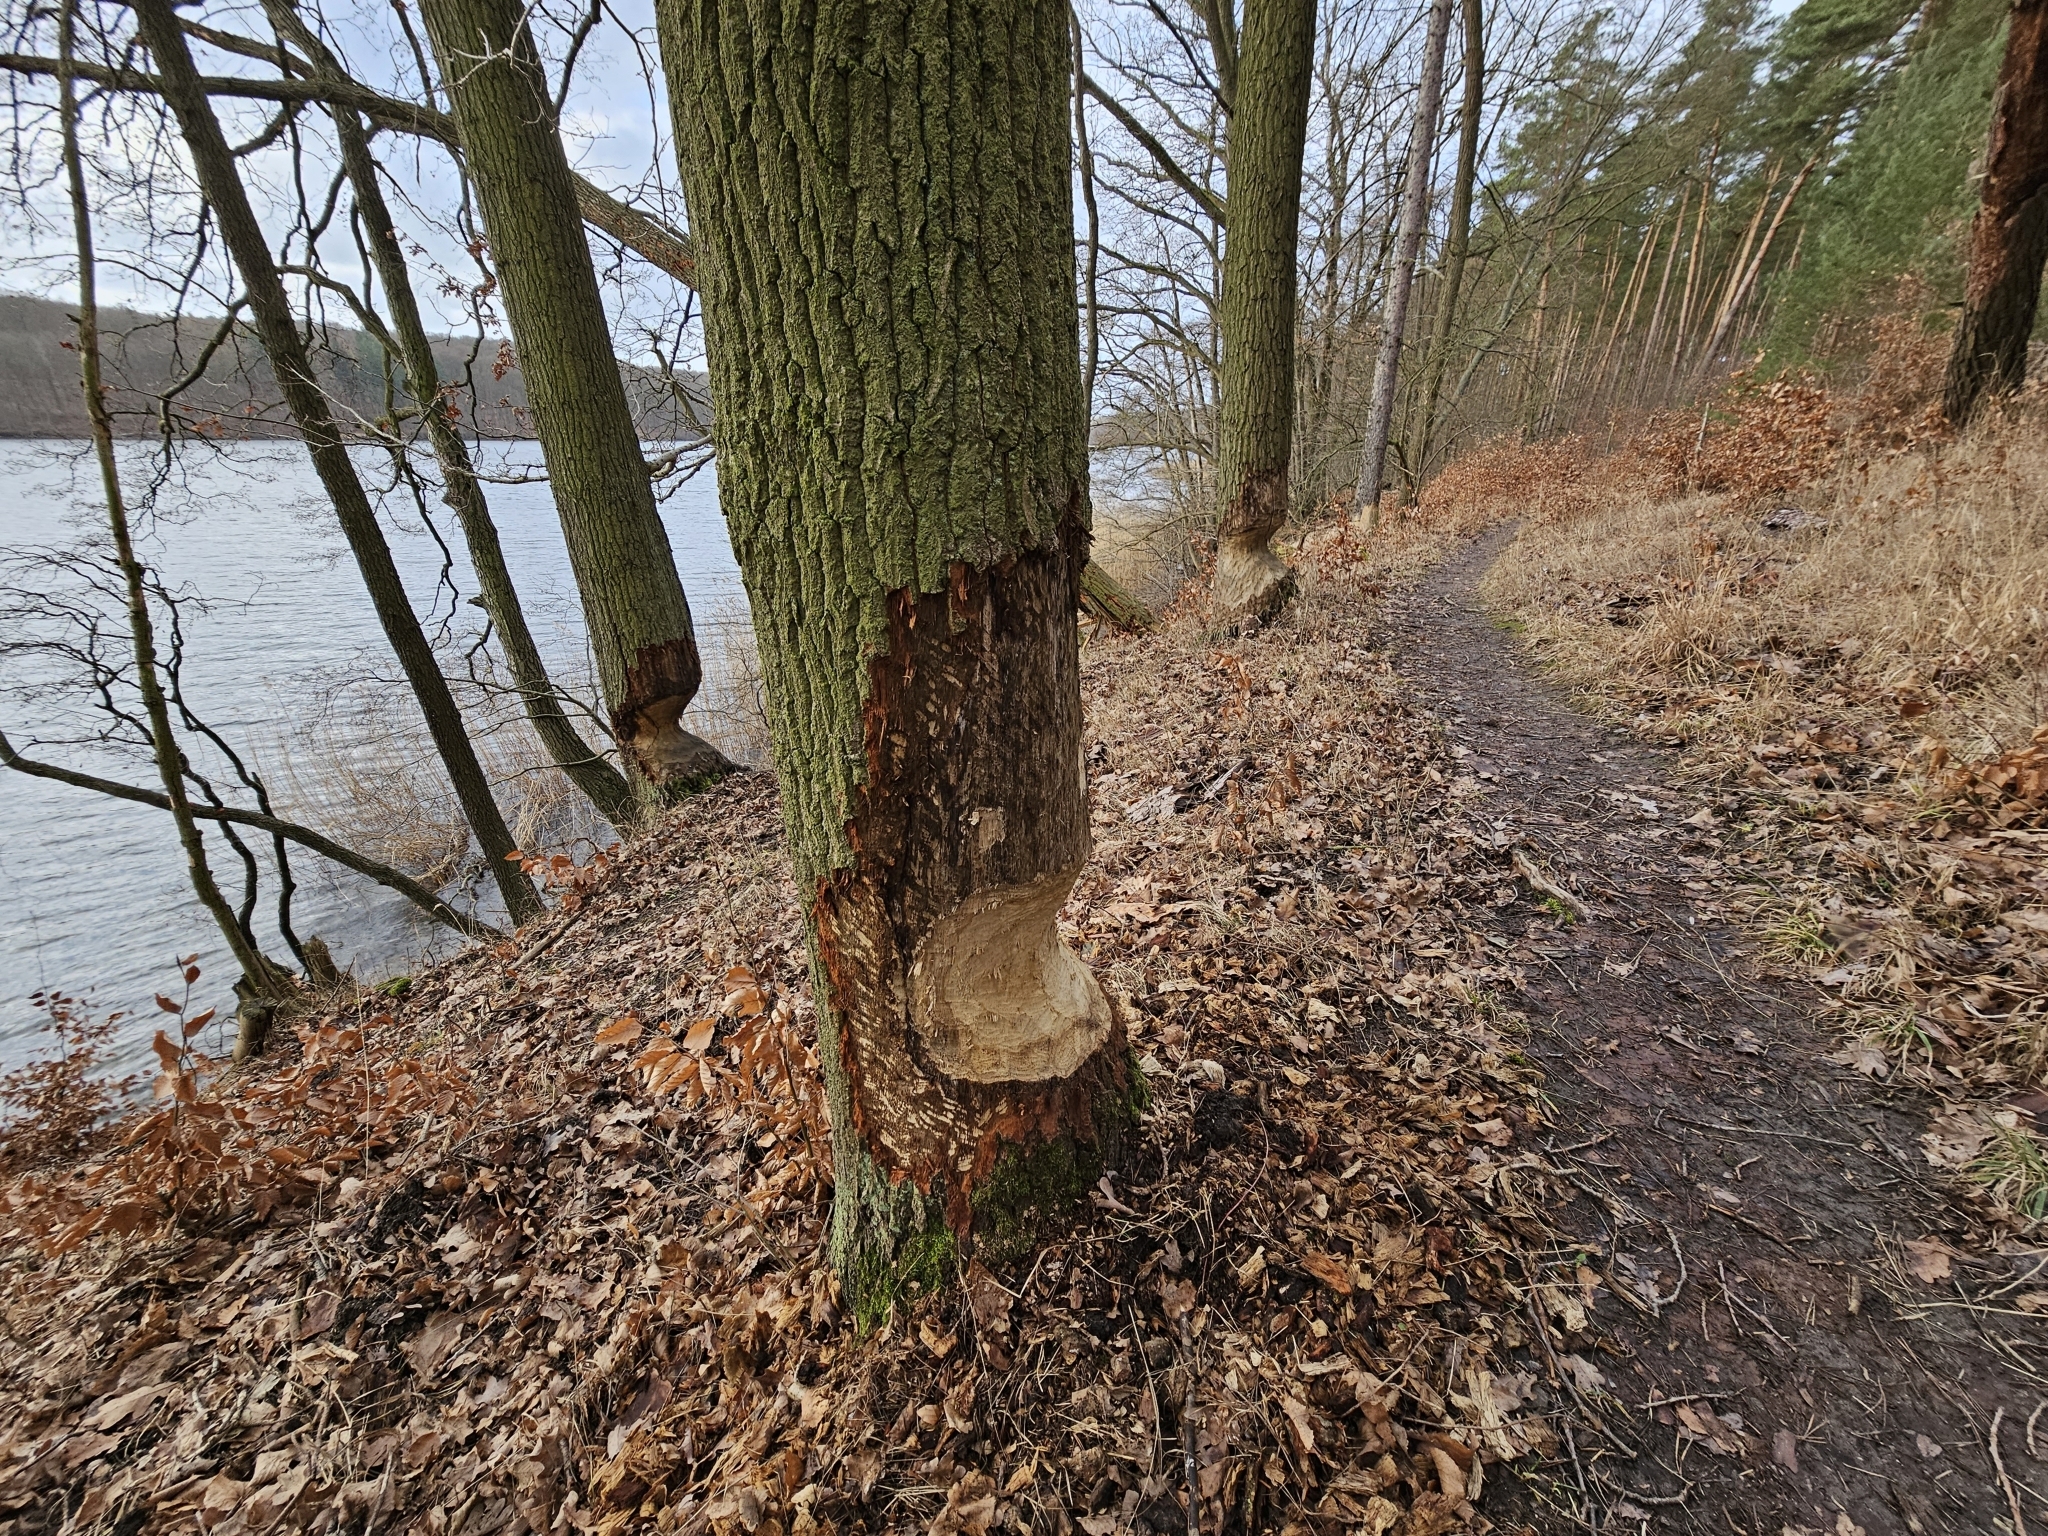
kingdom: Animalia
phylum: Chordata
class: Mammalia
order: Rodentia
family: Castoridae
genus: Castor
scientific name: Castor fiber
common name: Eurasian beaver
